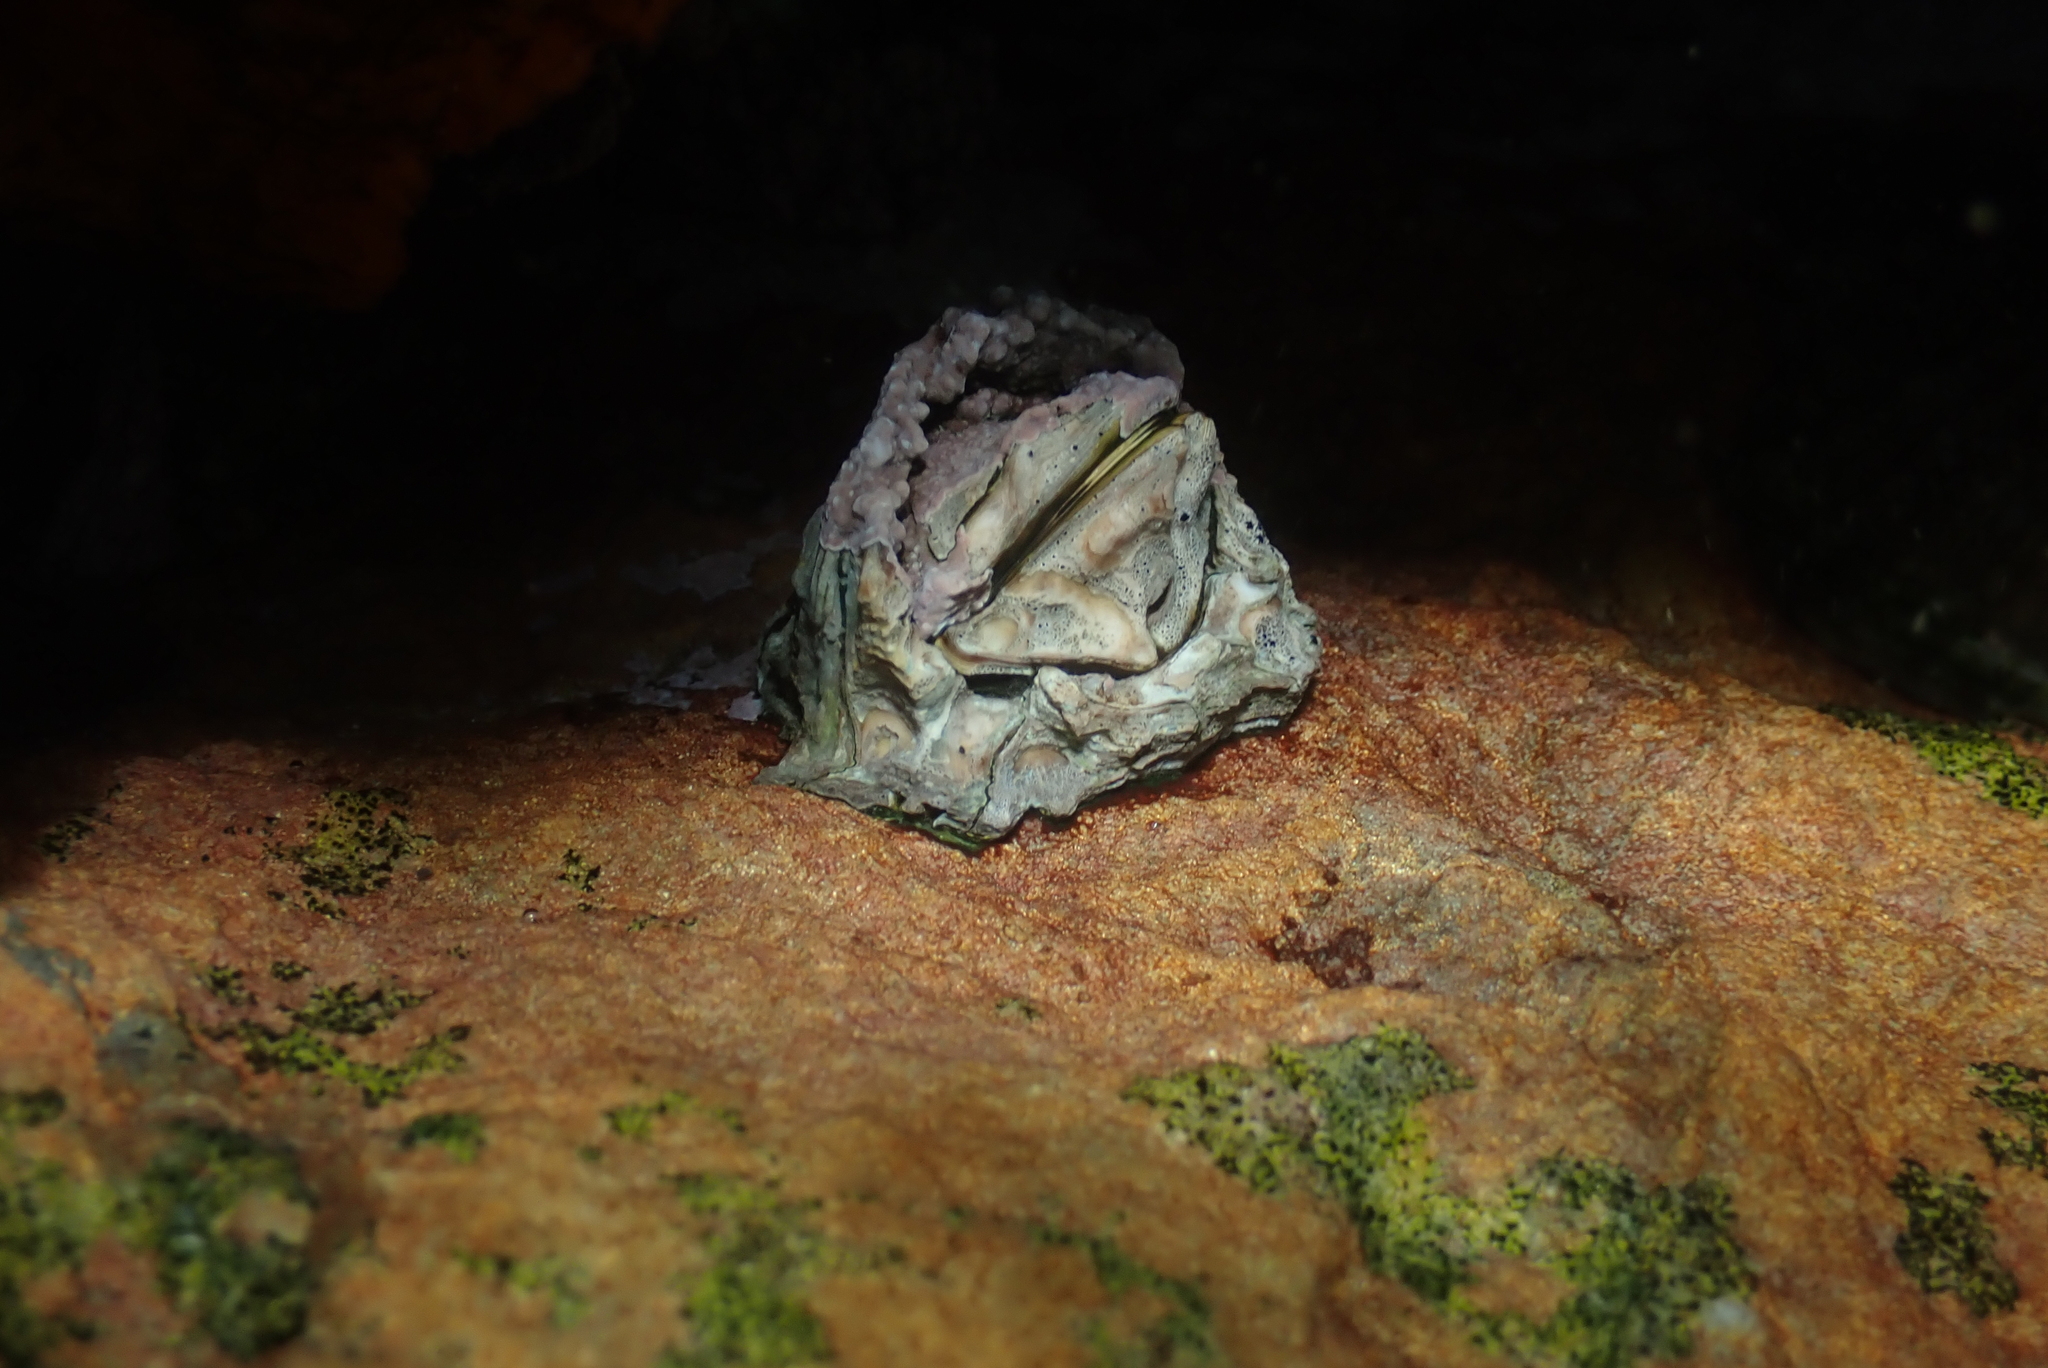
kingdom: Animalia
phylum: Arthropoda
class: Maxillopoda
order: Sessilia
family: Chthamalidae
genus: Octomeris
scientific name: Octomeris angulosa
